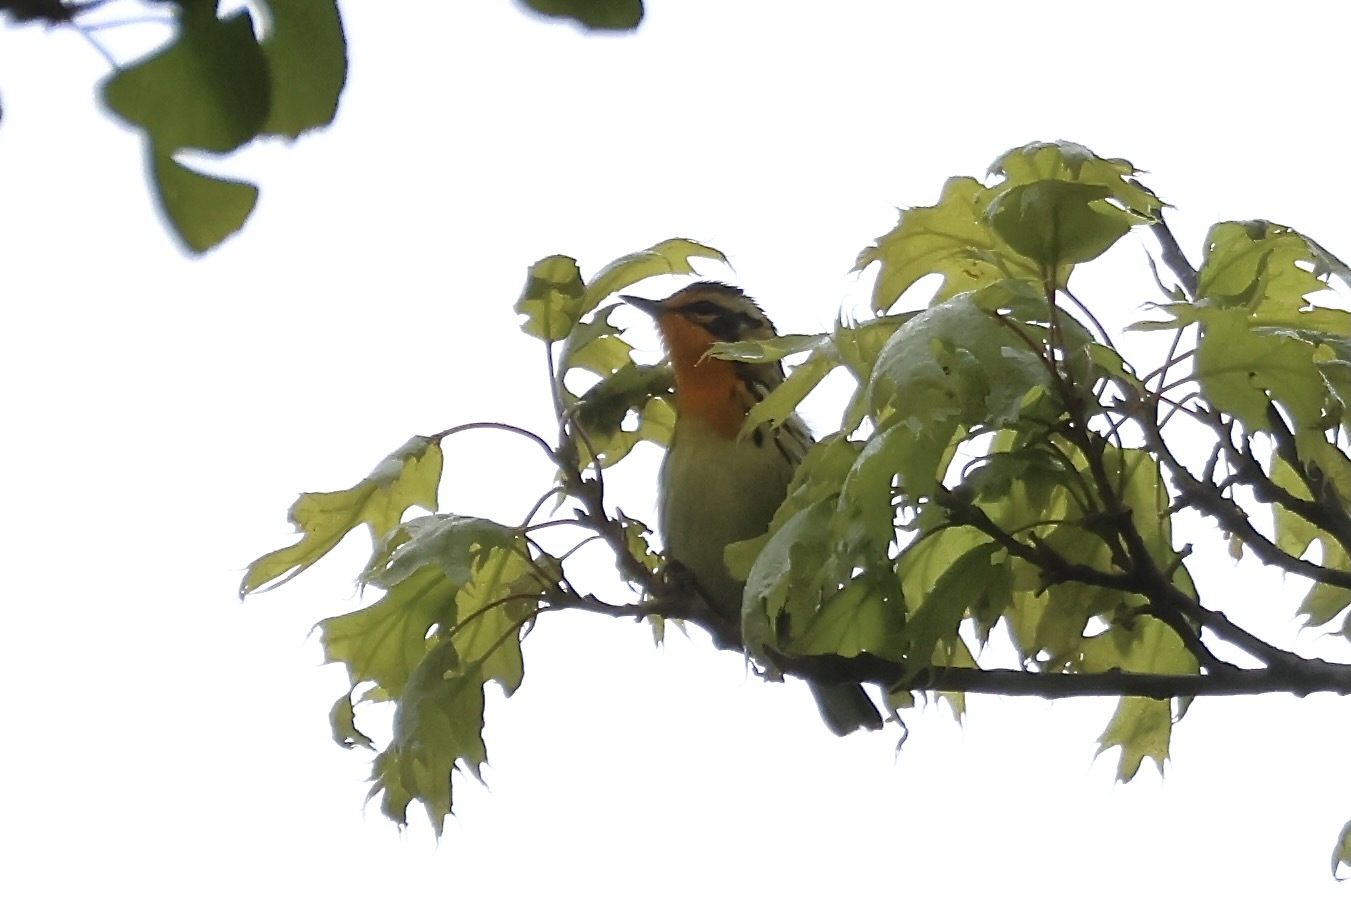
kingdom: Animalia
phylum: Chordata
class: Aves
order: Passeriformes
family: Parulidae
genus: Setophaga
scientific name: Setophaga fusca
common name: Blackburnian warbler
